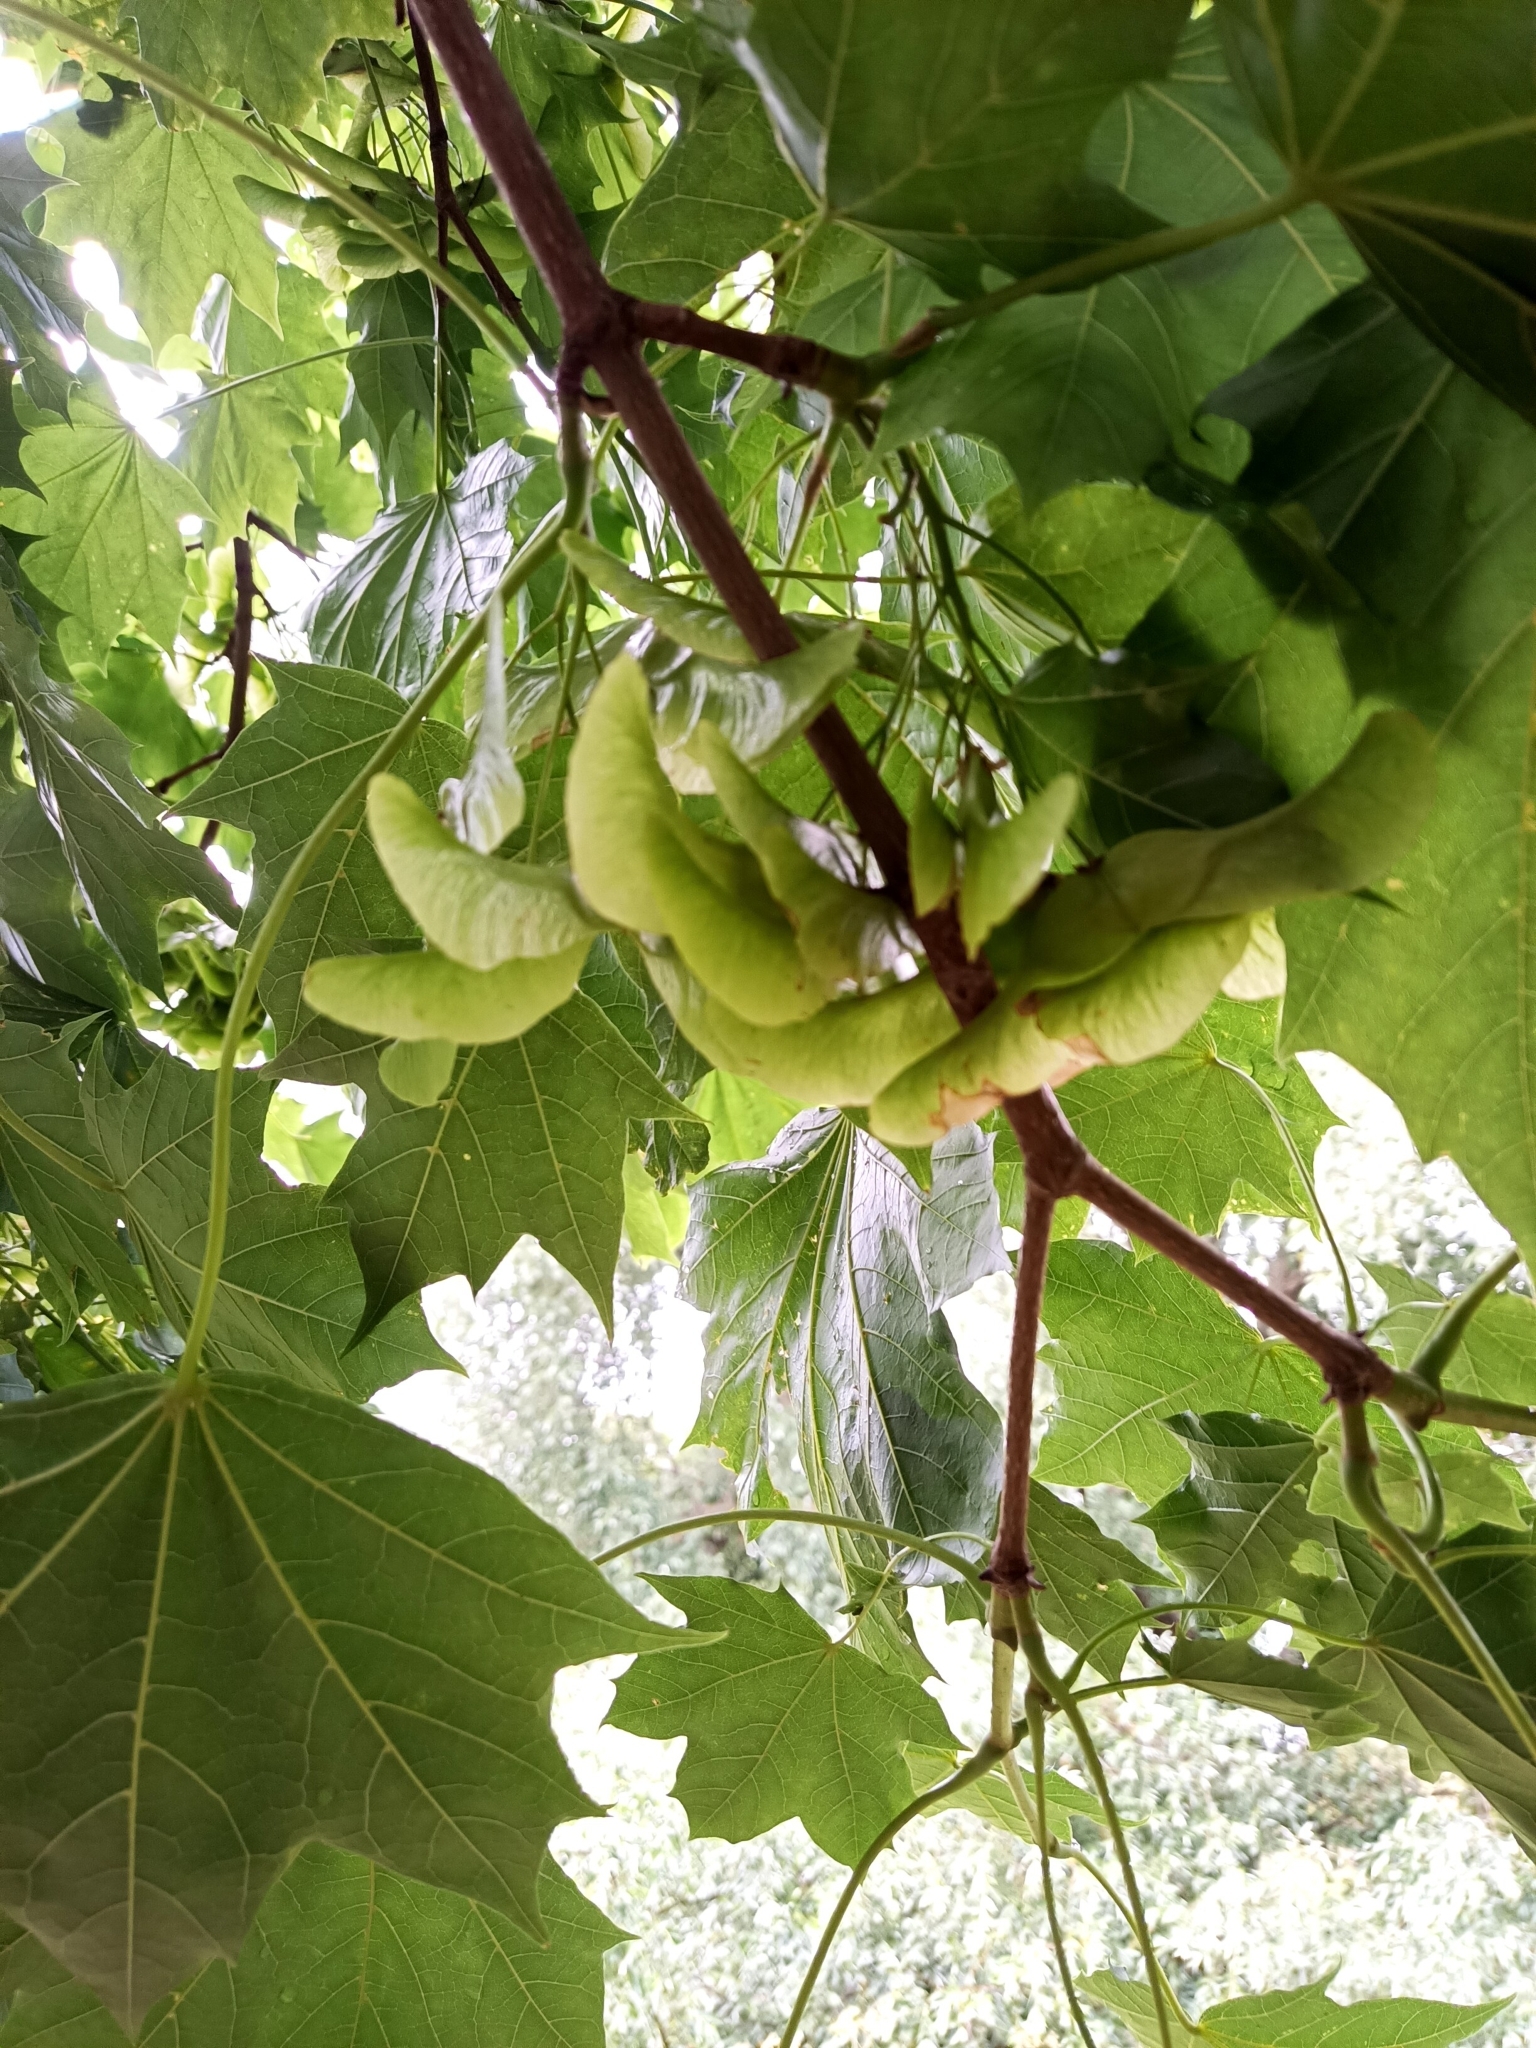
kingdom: Plantae
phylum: Tracheophyta
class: Magnoliopsida
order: Sapindales
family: Sapindaceae
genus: Acer
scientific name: Acer platanoides
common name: Norway maple
